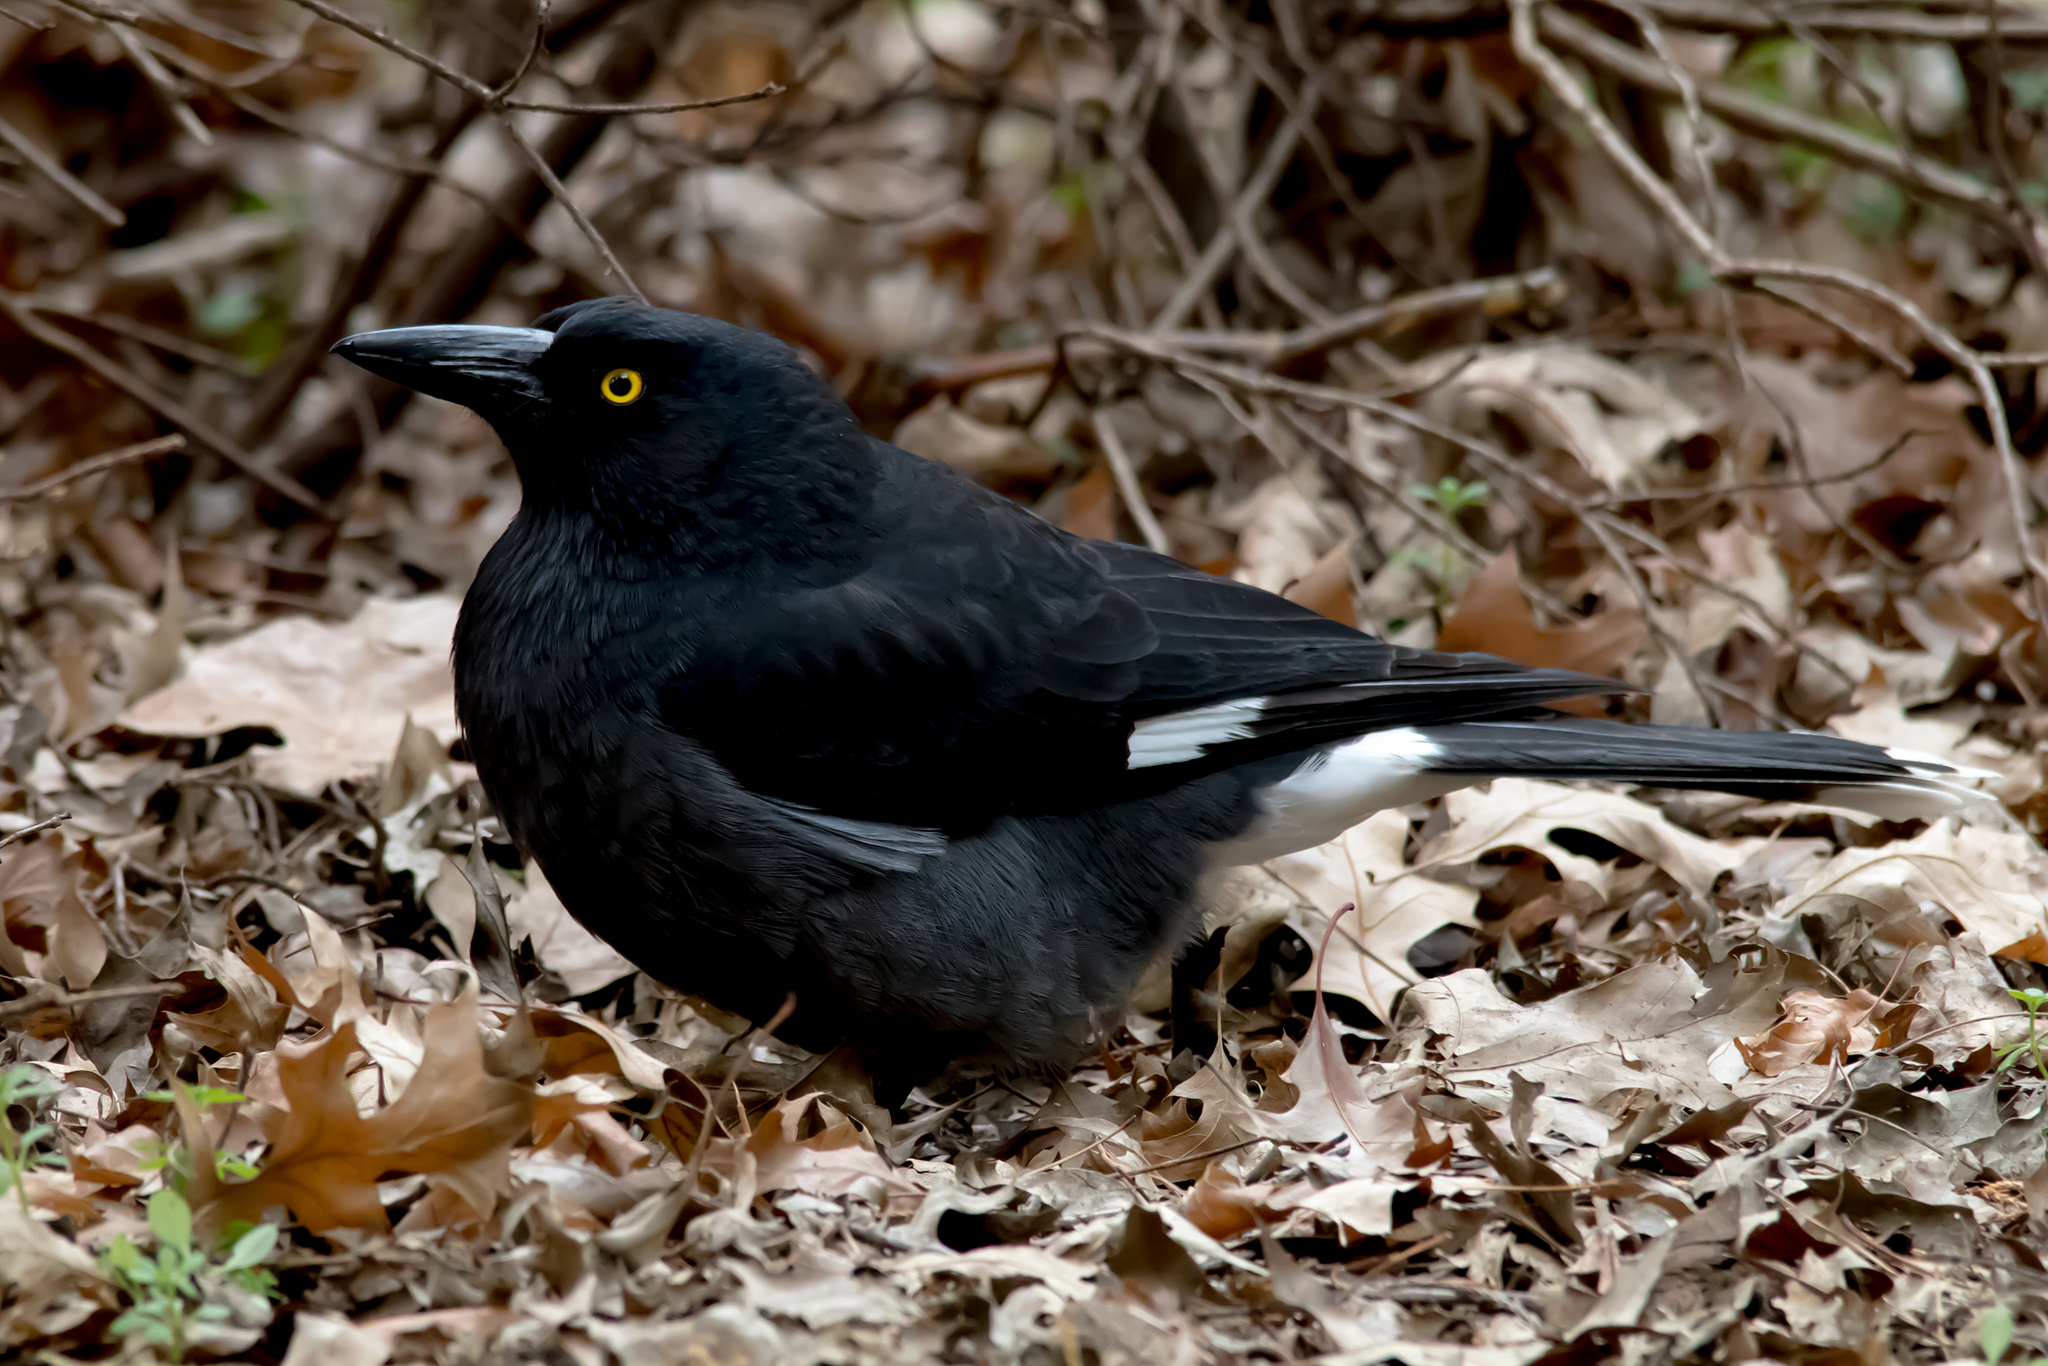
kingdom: Animalia
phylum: Chordata
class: Aves
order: Passeriformes
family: Cracticidae
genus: Strepera
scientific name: Strepera graculina
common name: Pied currawong
